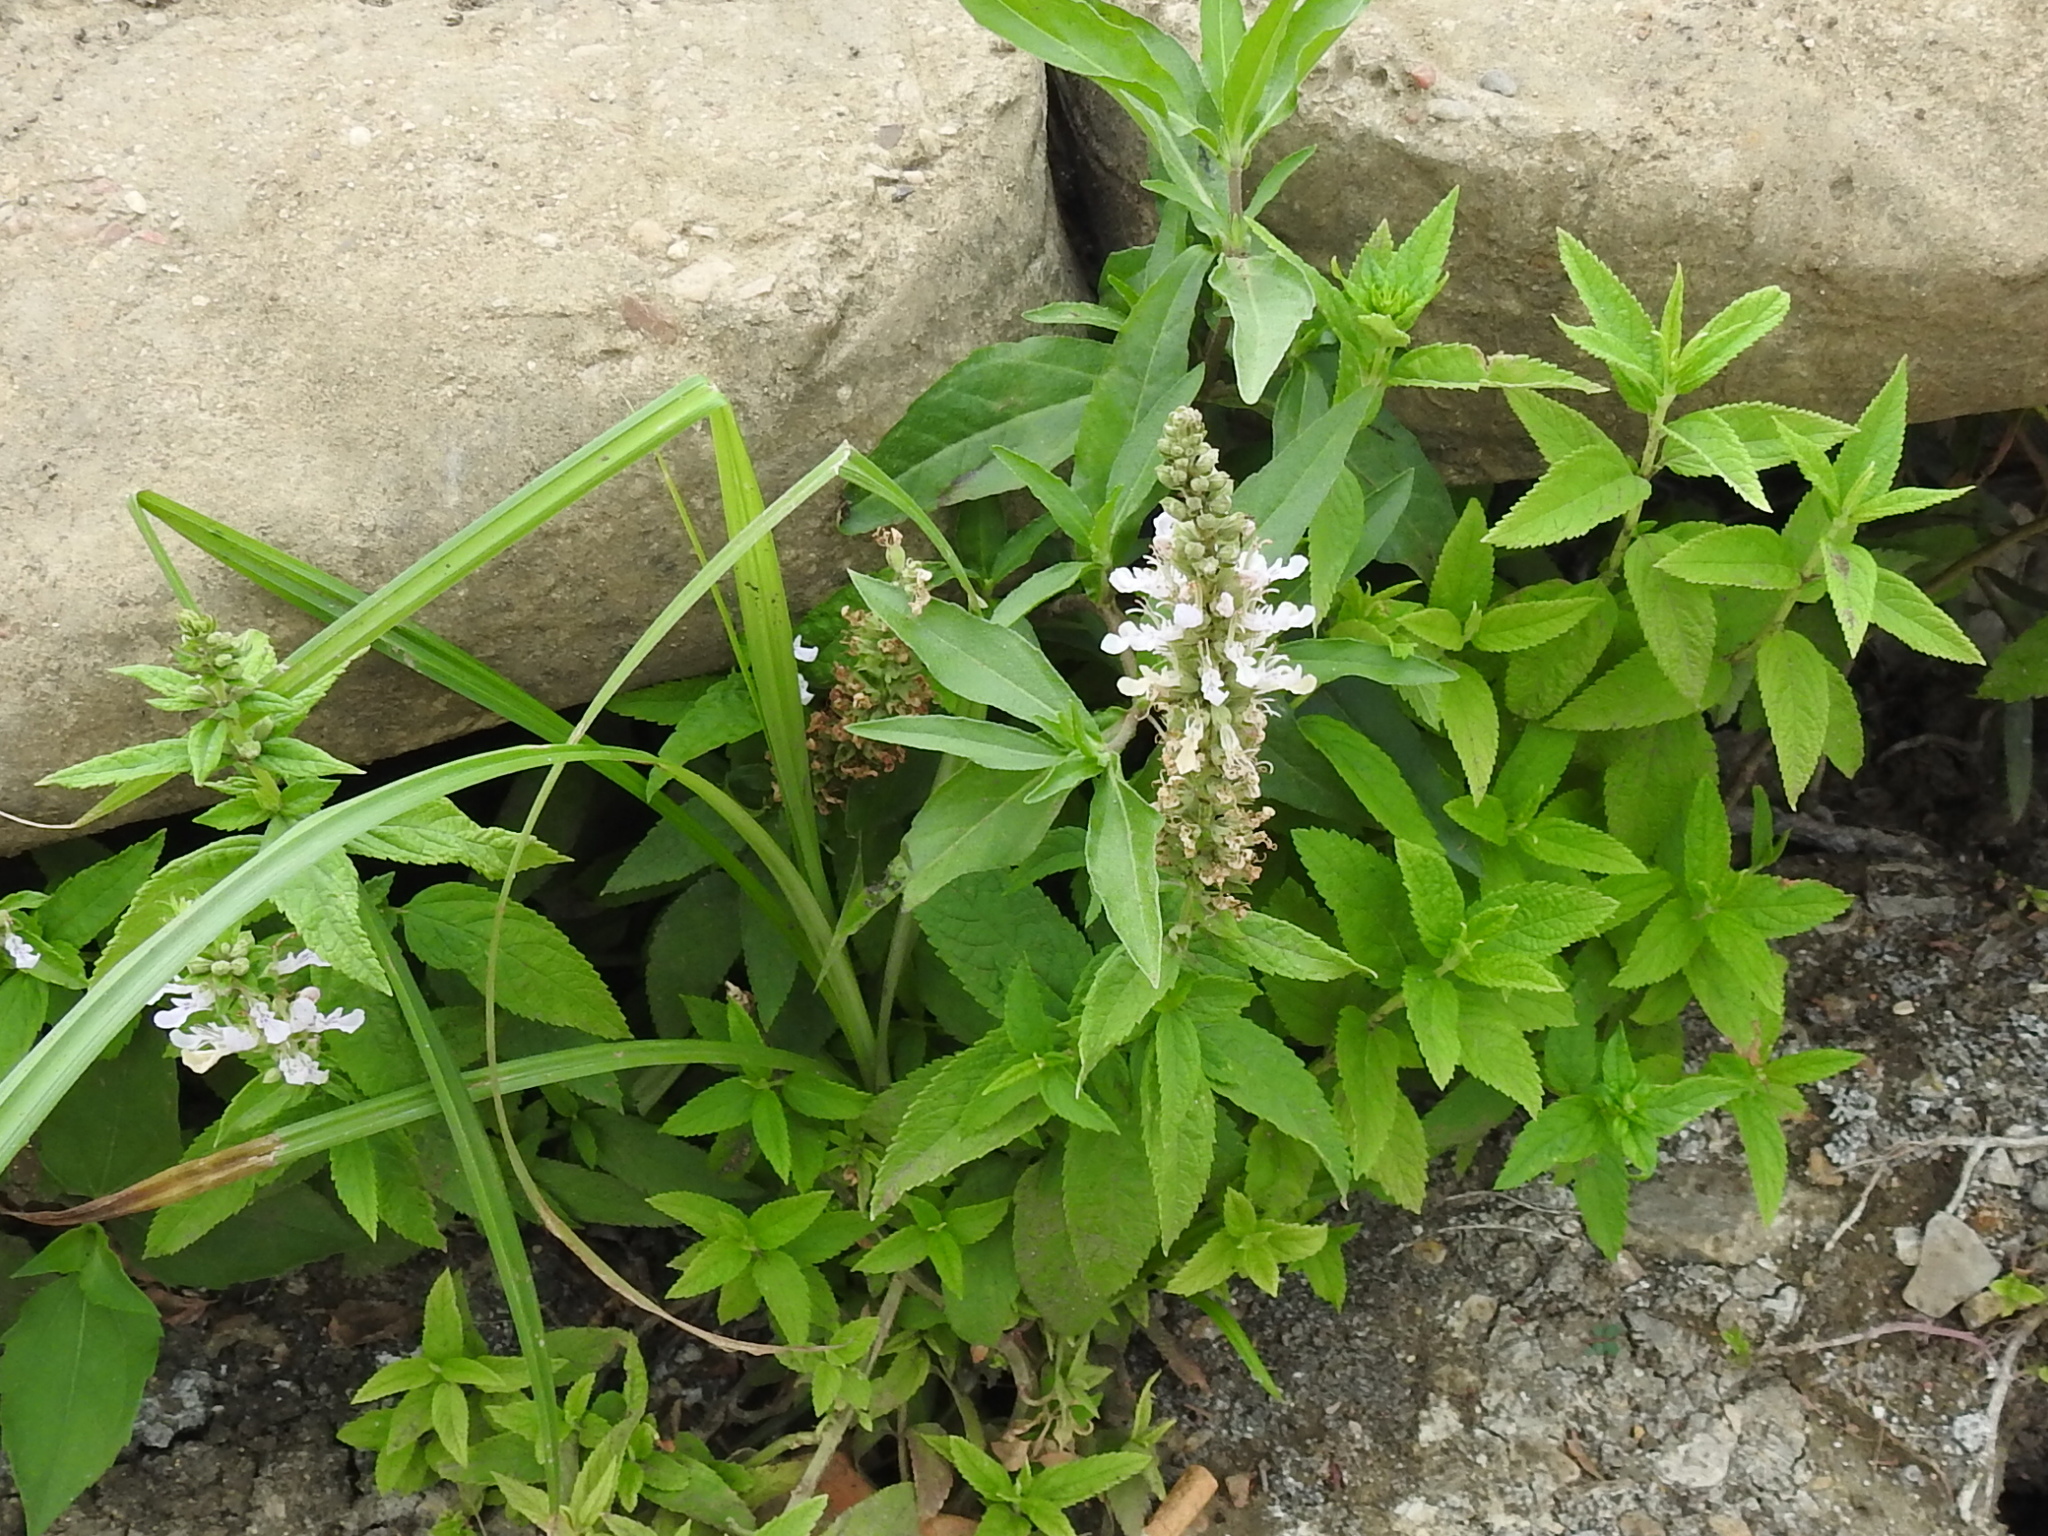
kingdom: Plantae
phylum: Tracheophyta
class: Magnoliopsida
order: Lamiales
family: Lamiaceae
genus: Teucrium
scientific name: Teucrium canadense
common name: American germander
